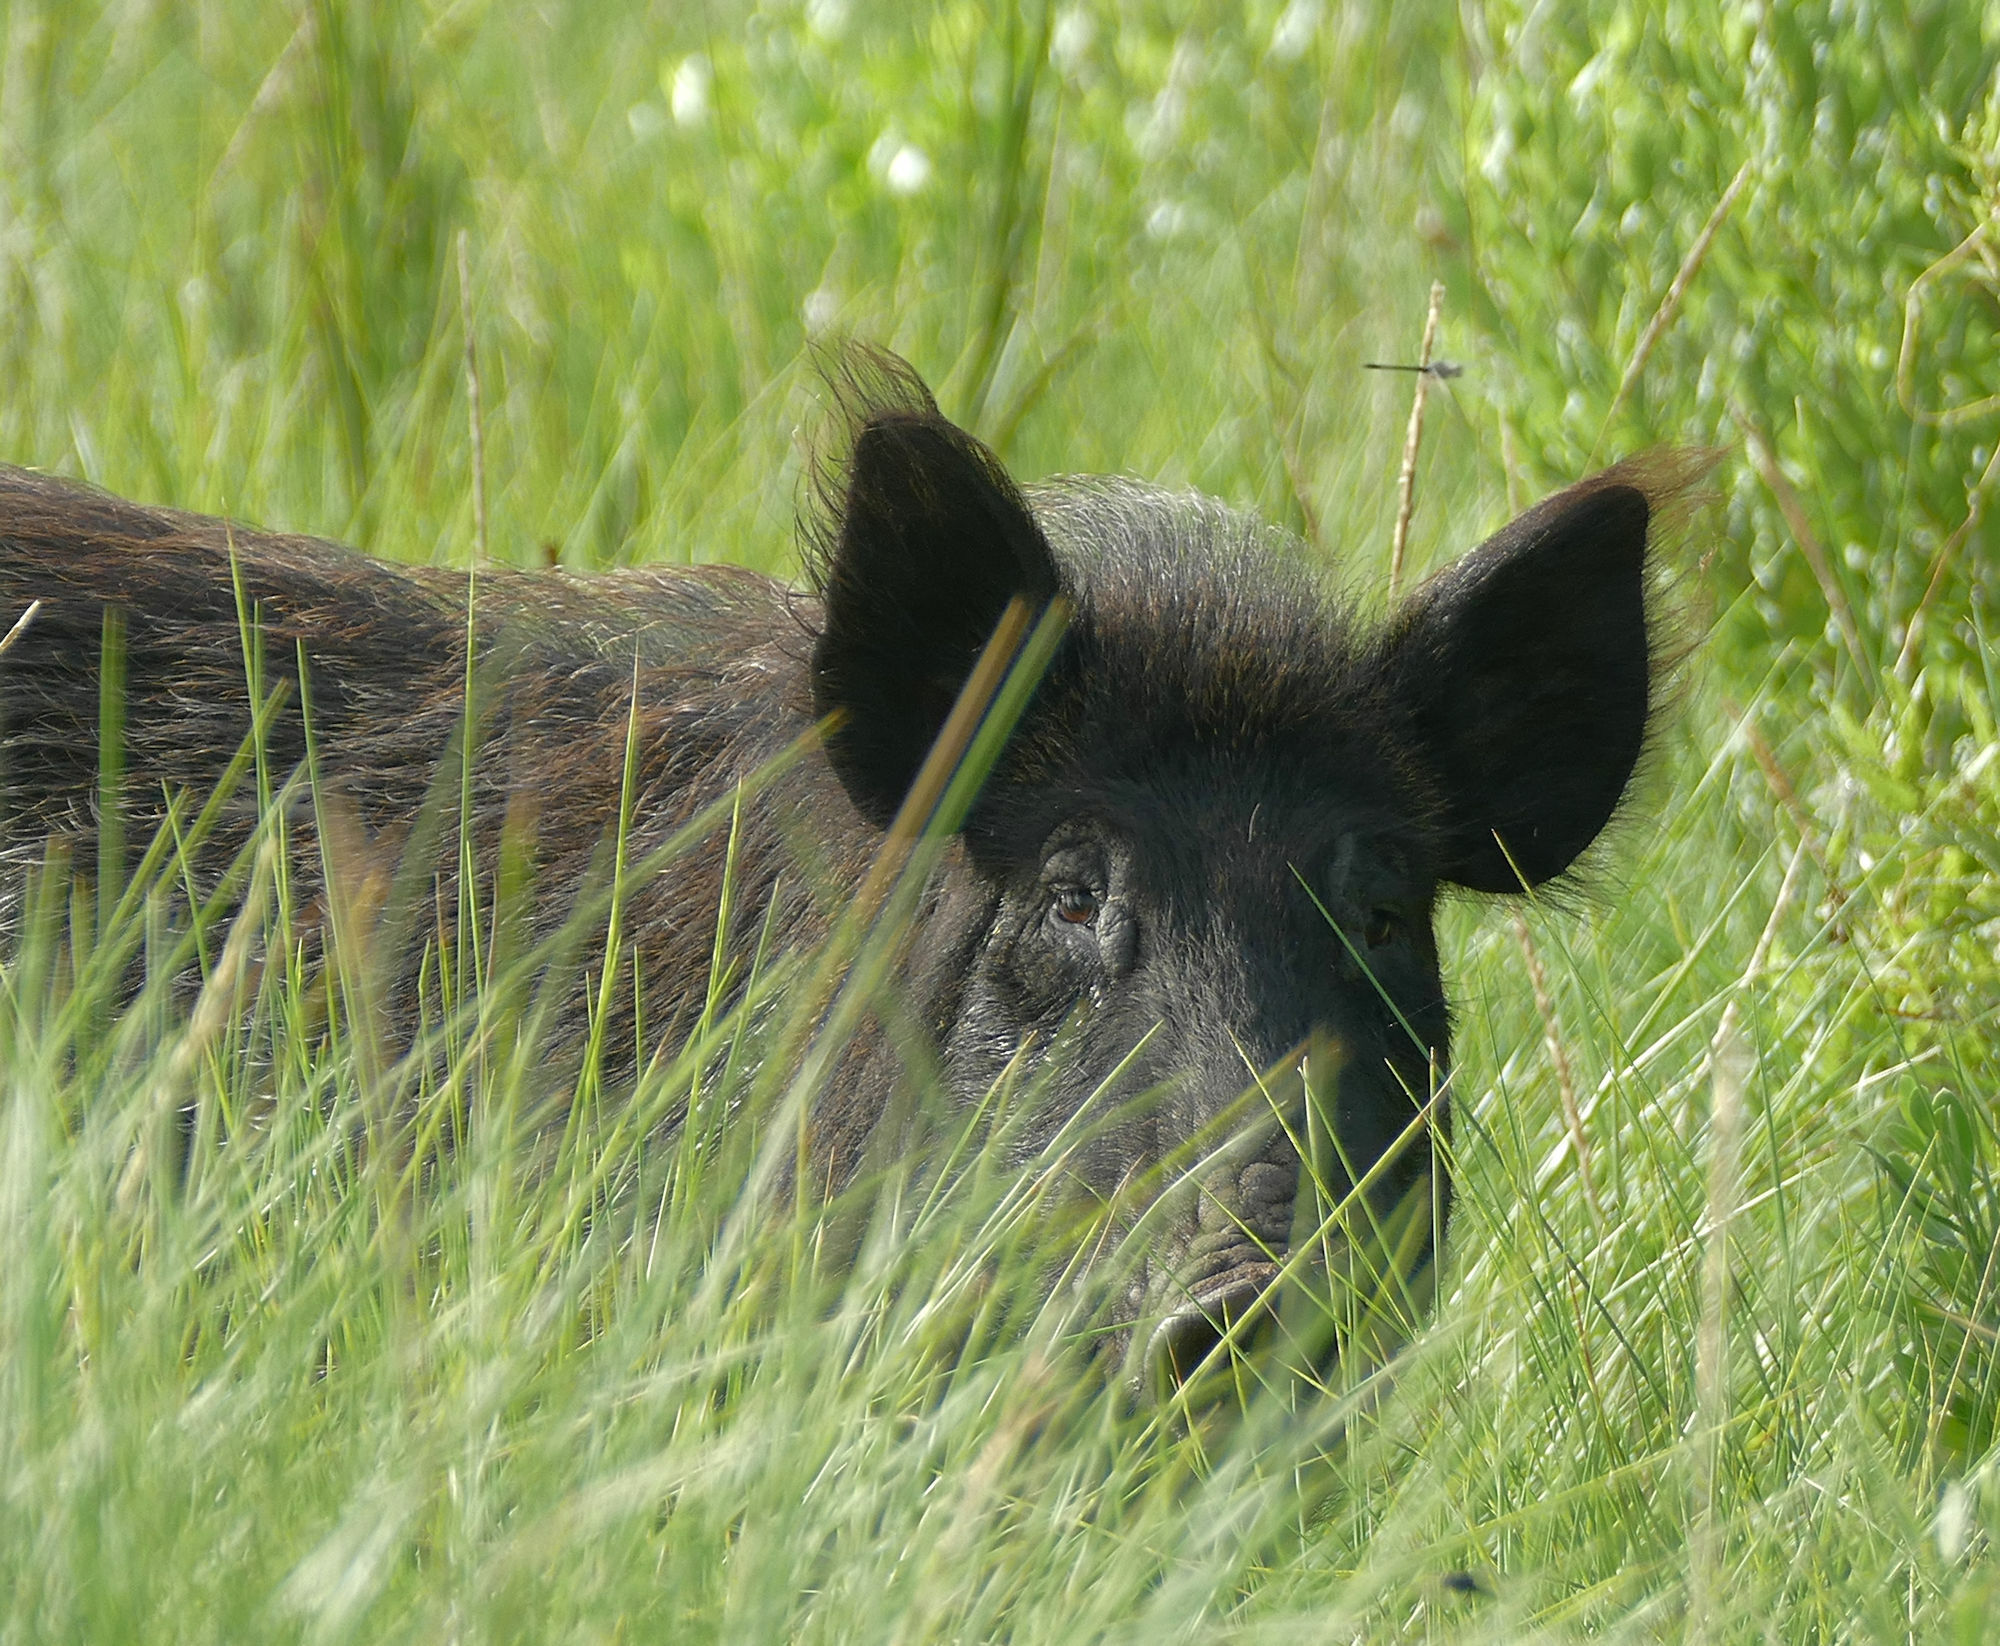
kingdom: Animalia
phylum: Chordata
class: Mammalia
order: Artiodactyla
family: Suidae
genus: Sus
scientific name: Sus scrofa
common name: Wild boar
